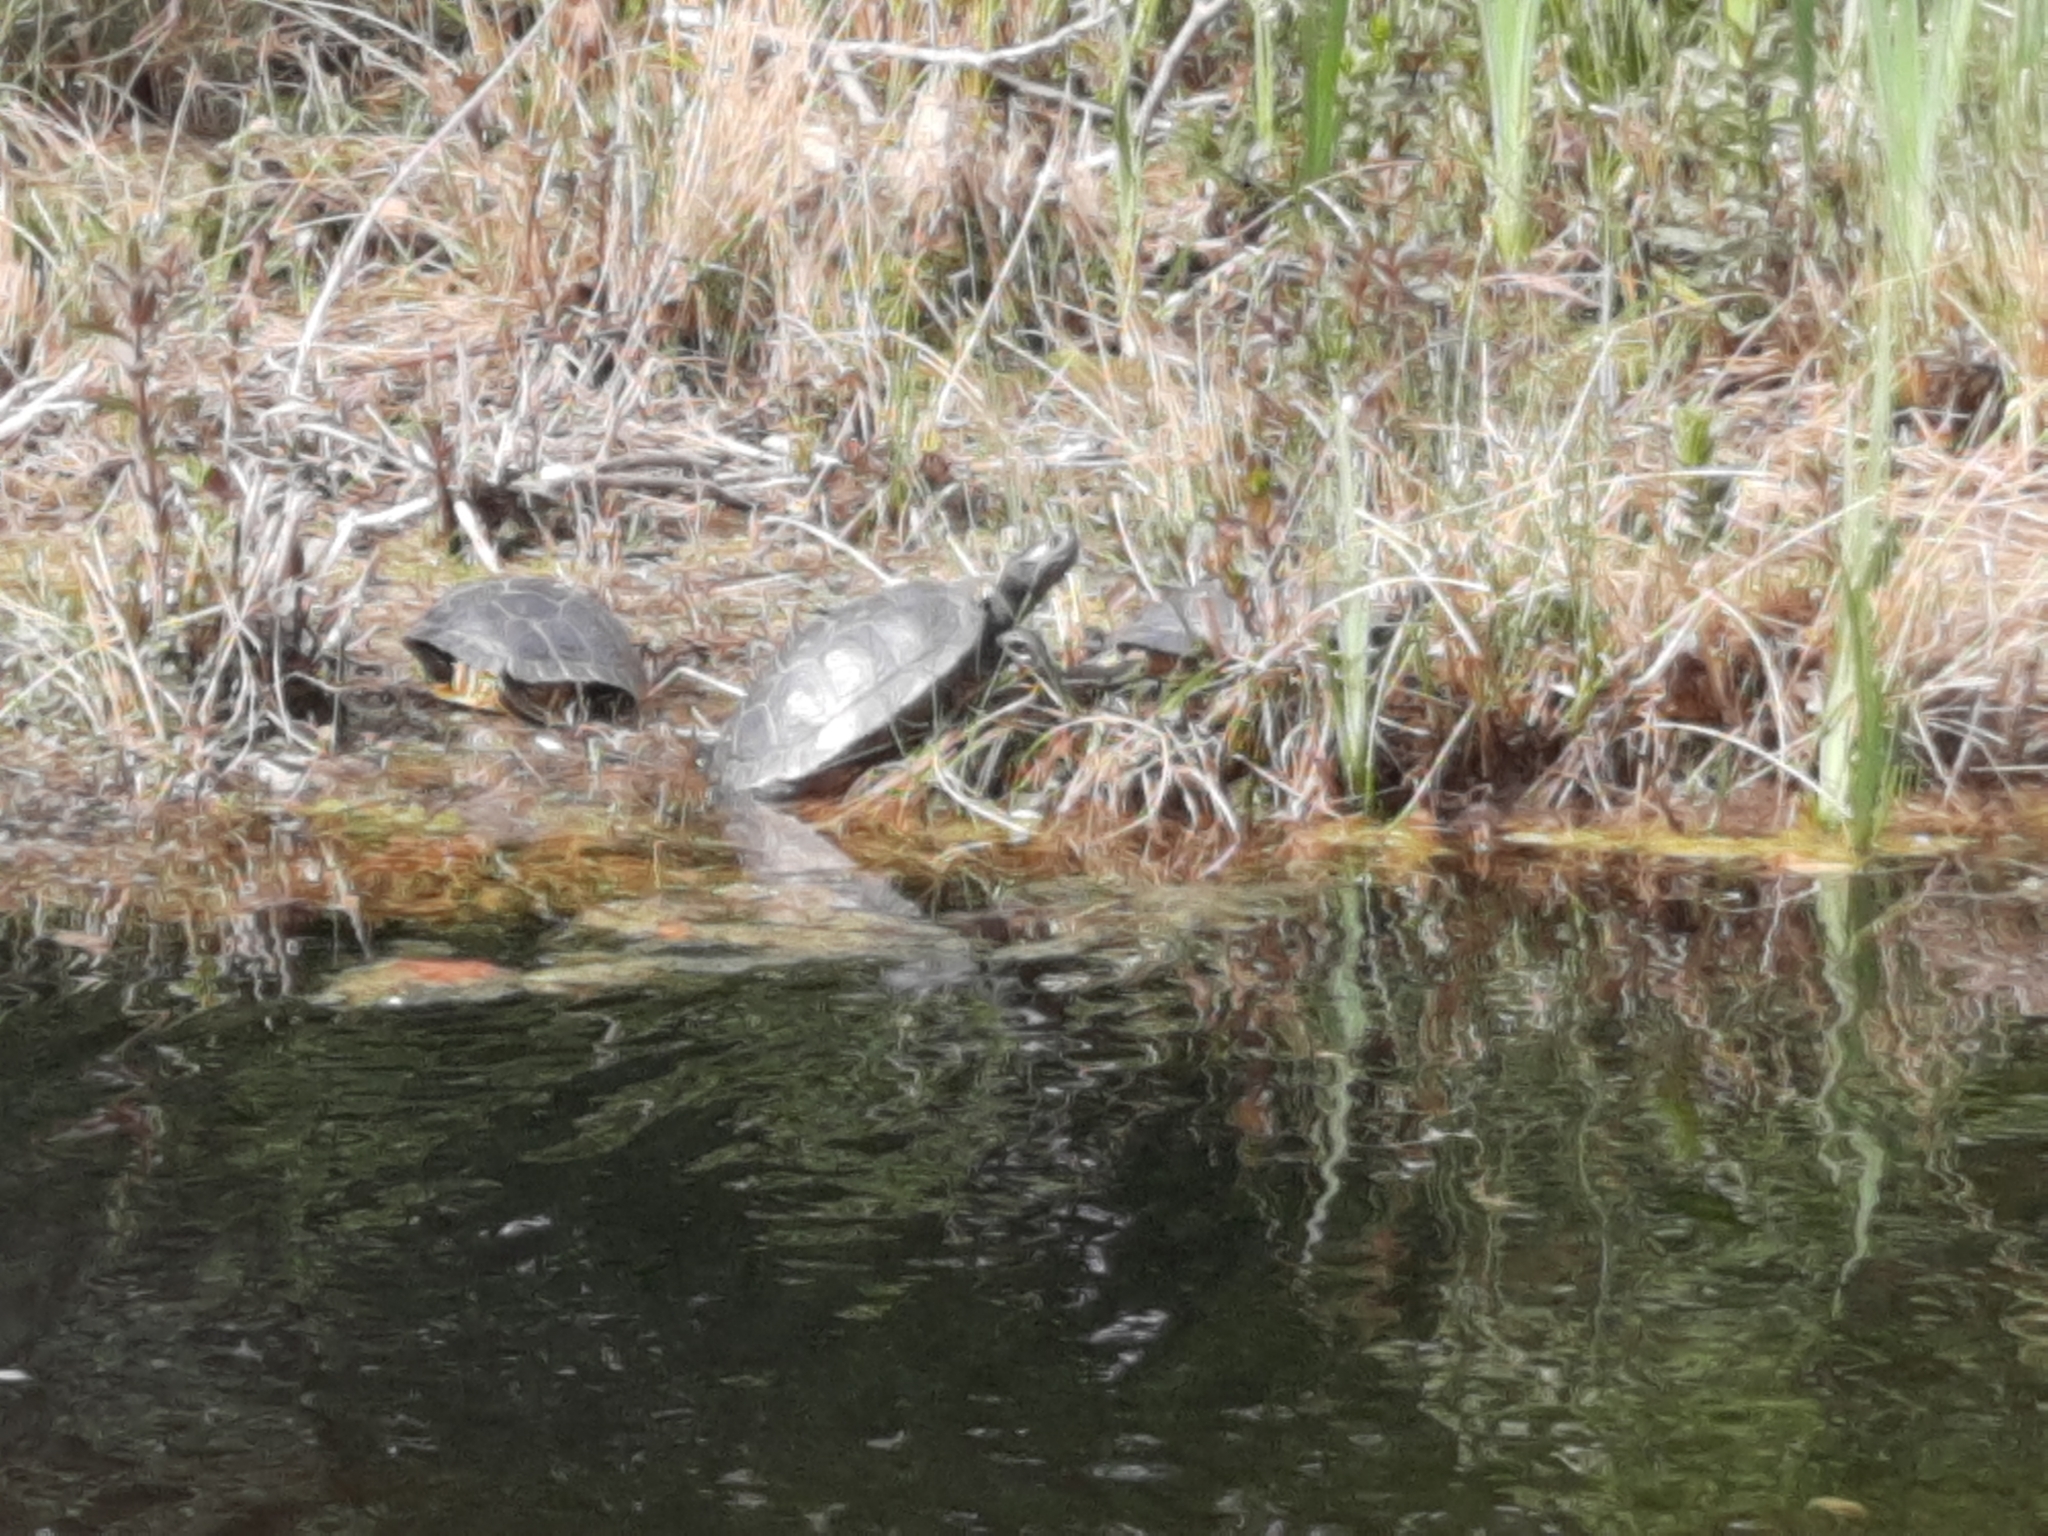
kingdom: Animalia
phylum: Chordata
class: Testudines
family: Geoemydidae
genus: Mauremys
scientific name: Mauremys leprosa
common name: Mediterranean pond turtle
